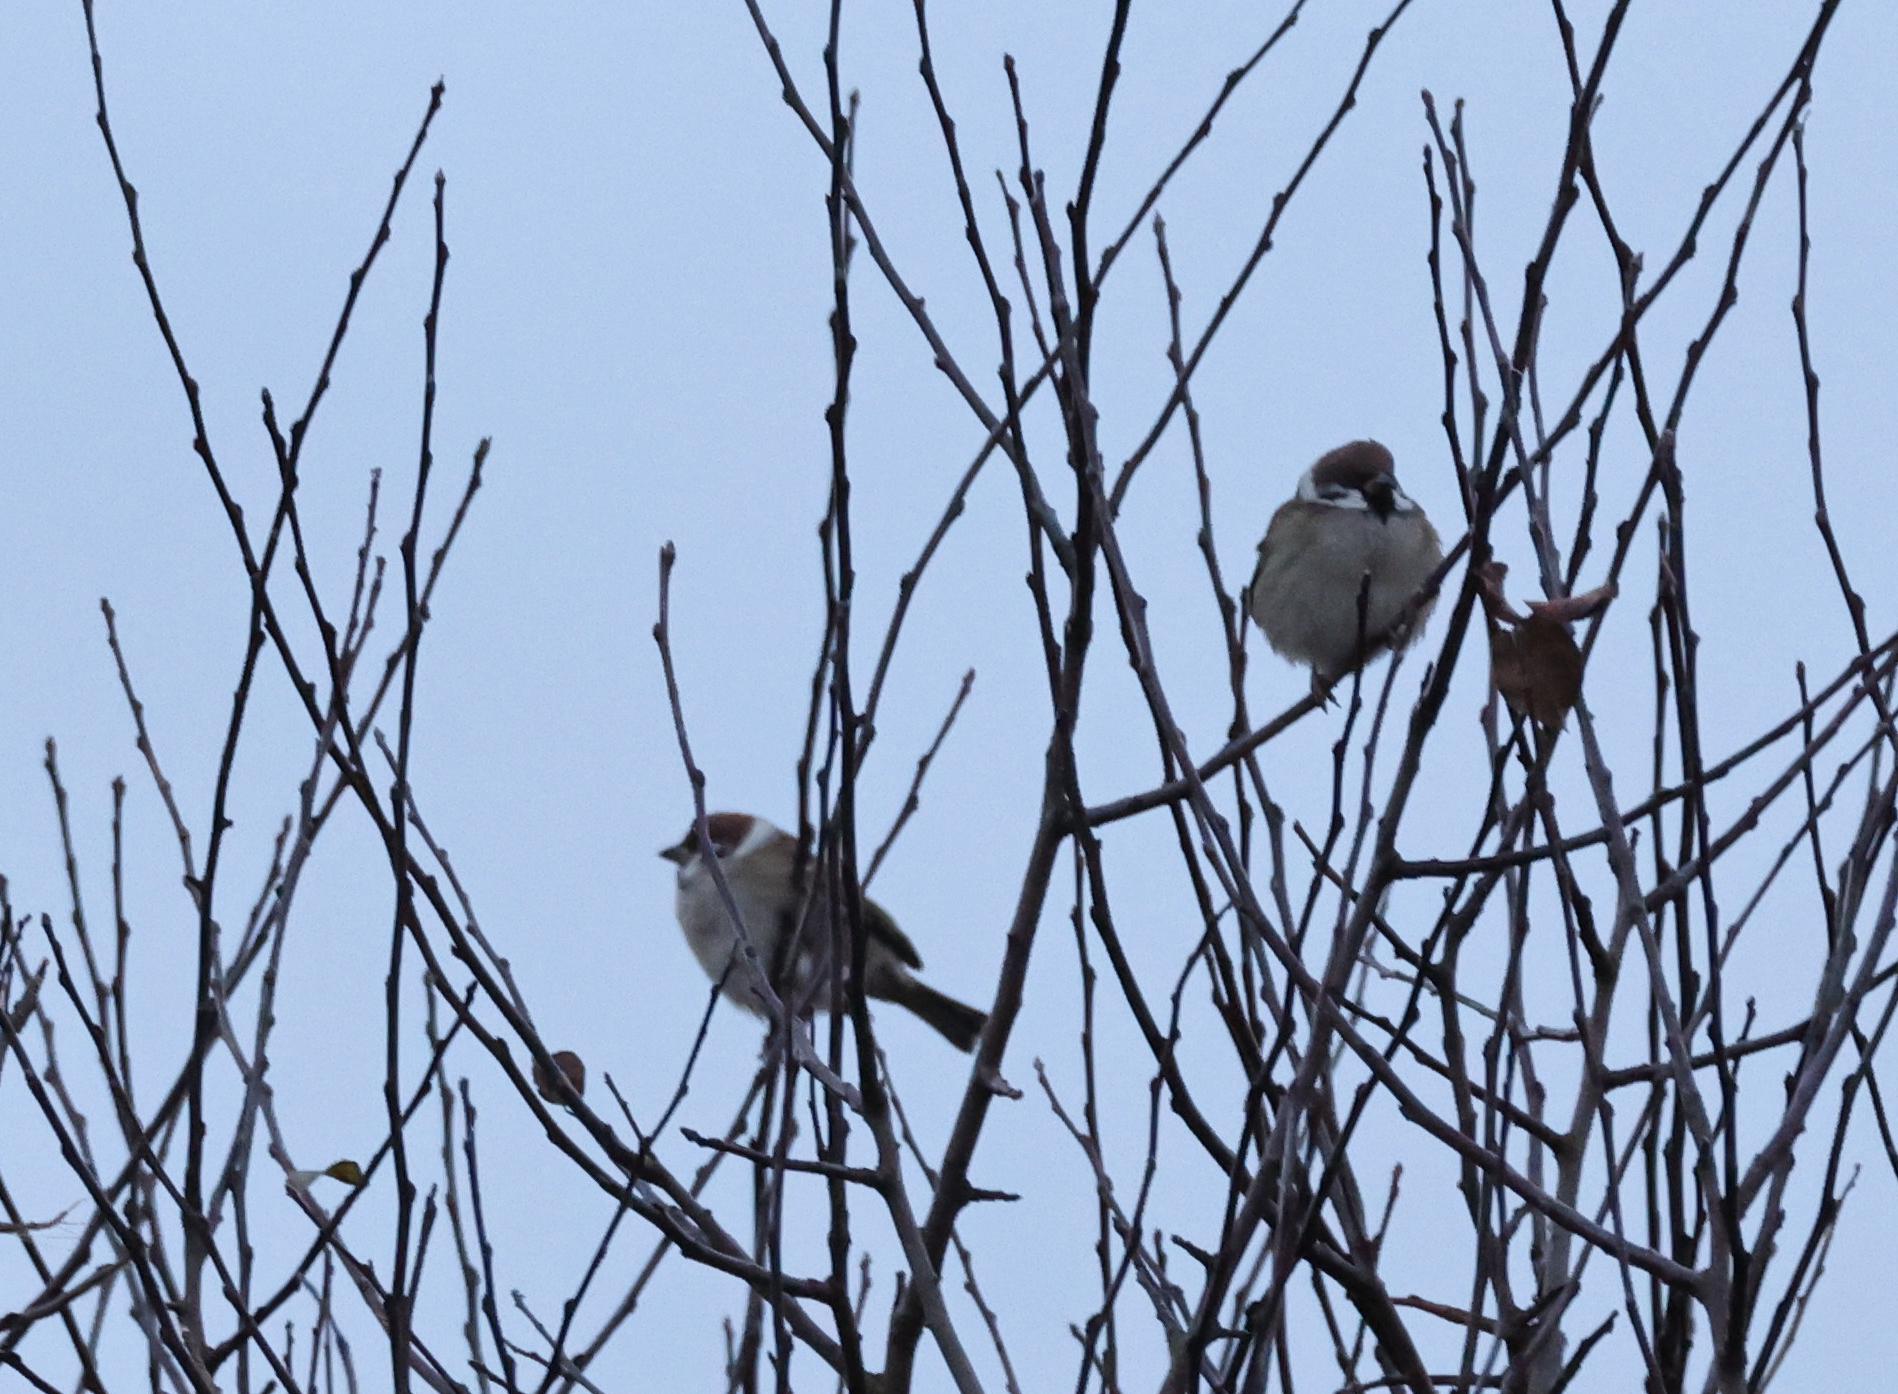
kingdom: Animalia
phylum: Chordata
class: Aves
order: Passeriformes
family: Passeridae
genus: Passer
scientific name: Passer montanus
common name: Eurasian tree sparrow
